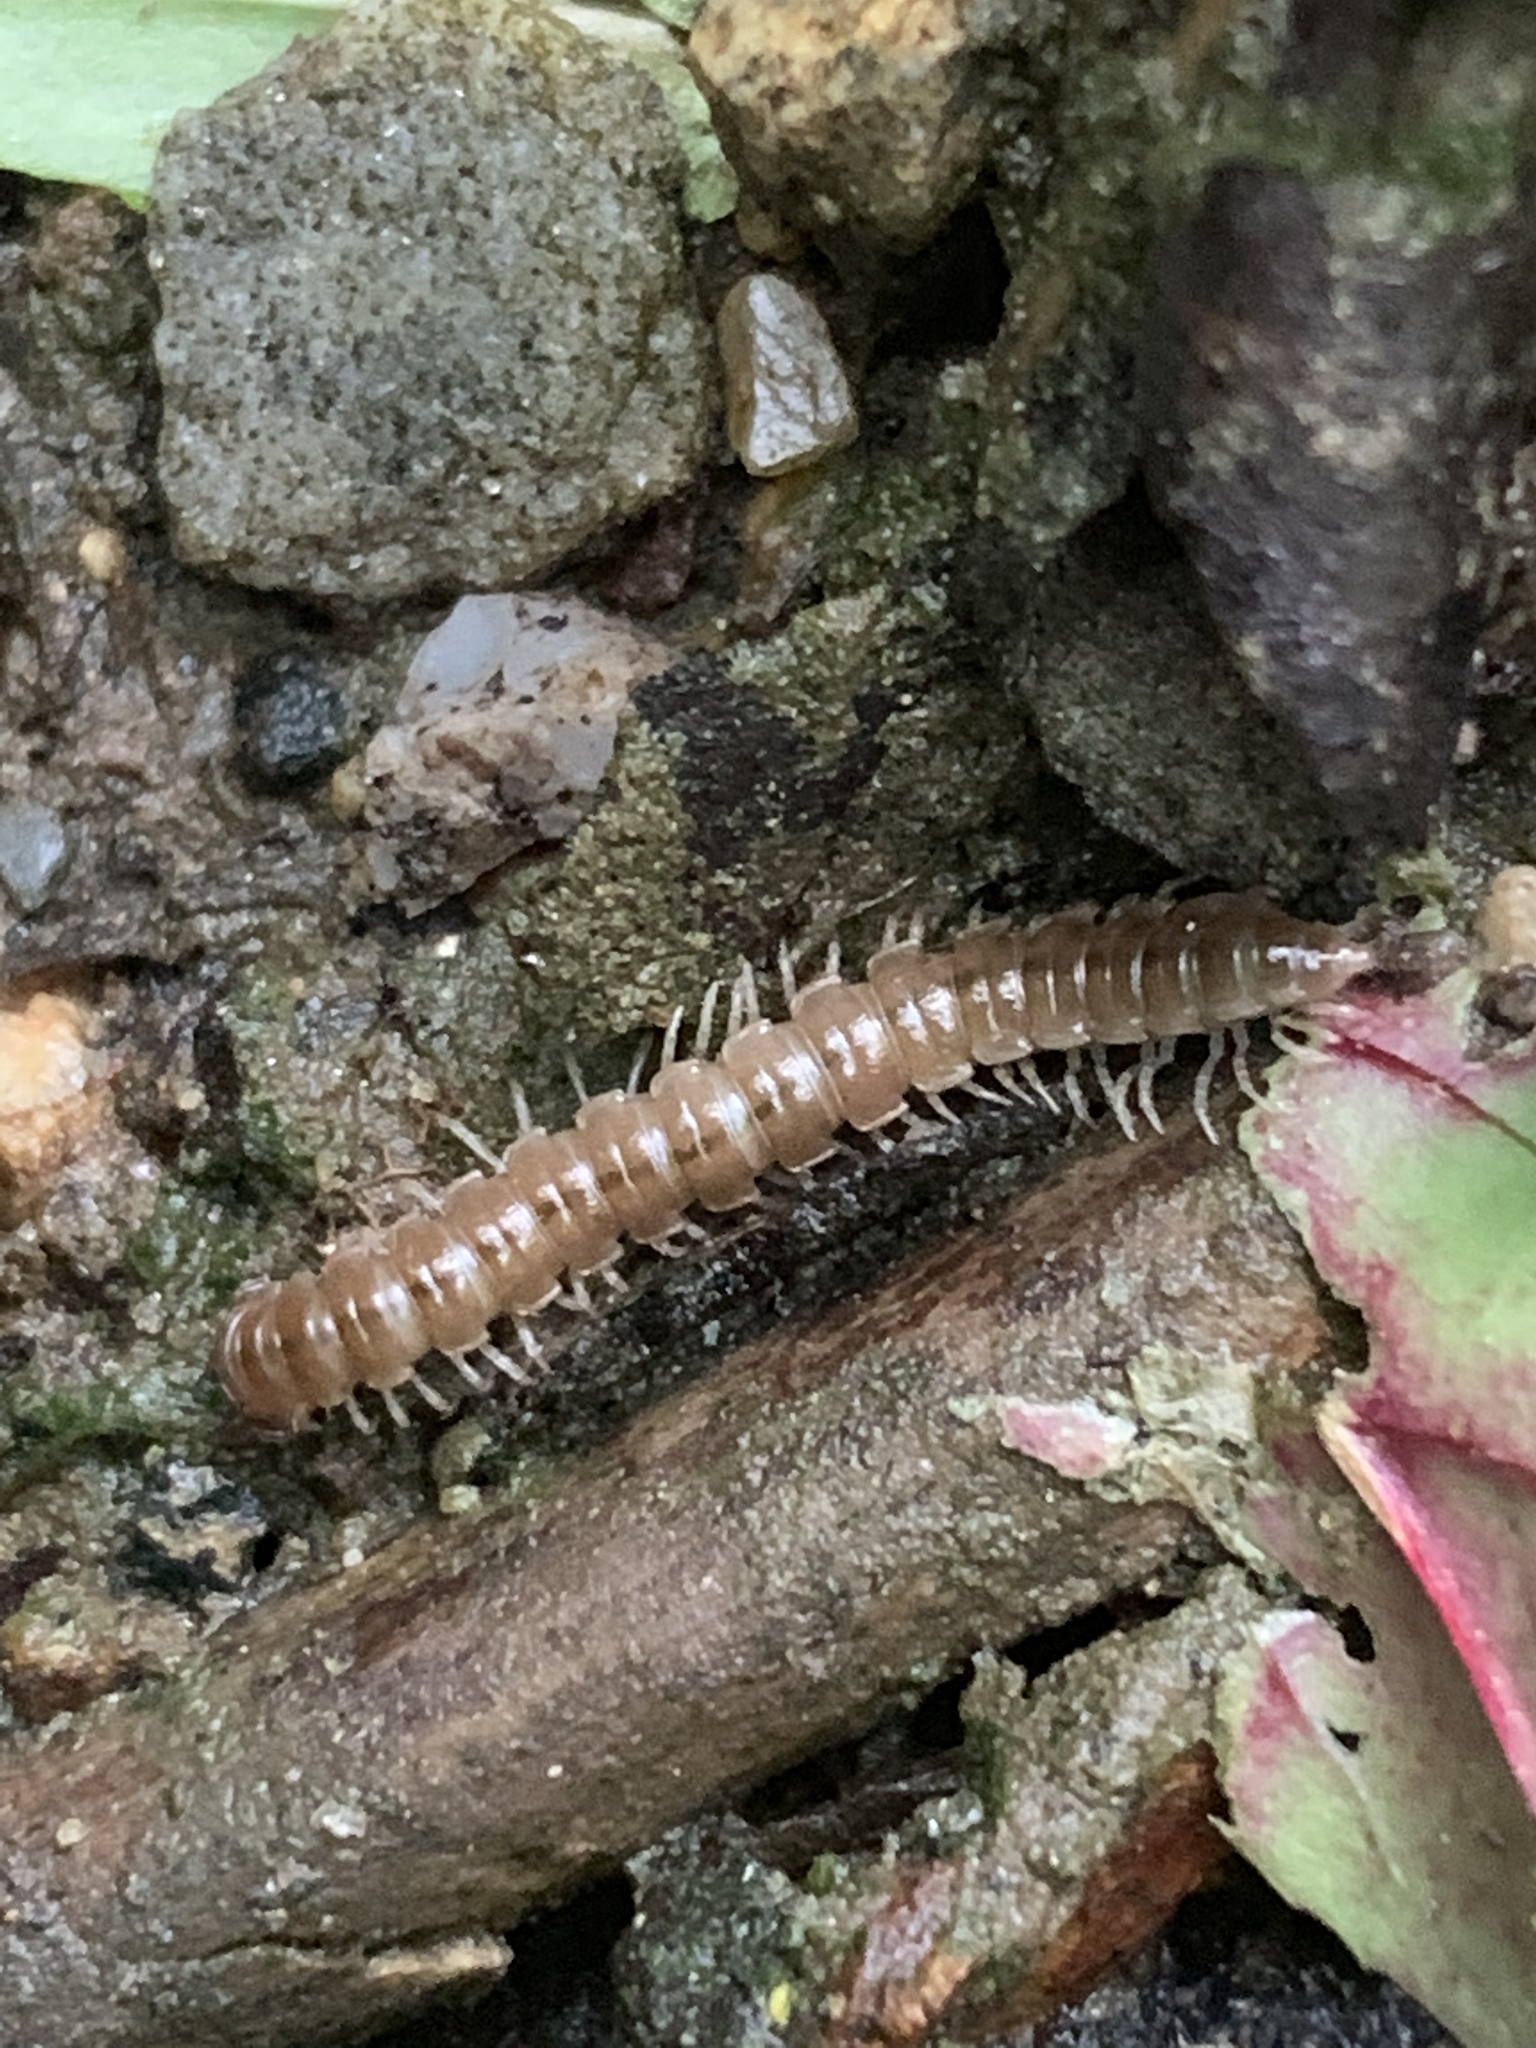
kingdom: Animalia
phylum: Arthropoda
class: Diplopoda
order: Polydesmida
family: Paradoxosomatidae
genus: Oxidus
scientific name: Oxidus gracilis
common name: Greenhouse millipede
